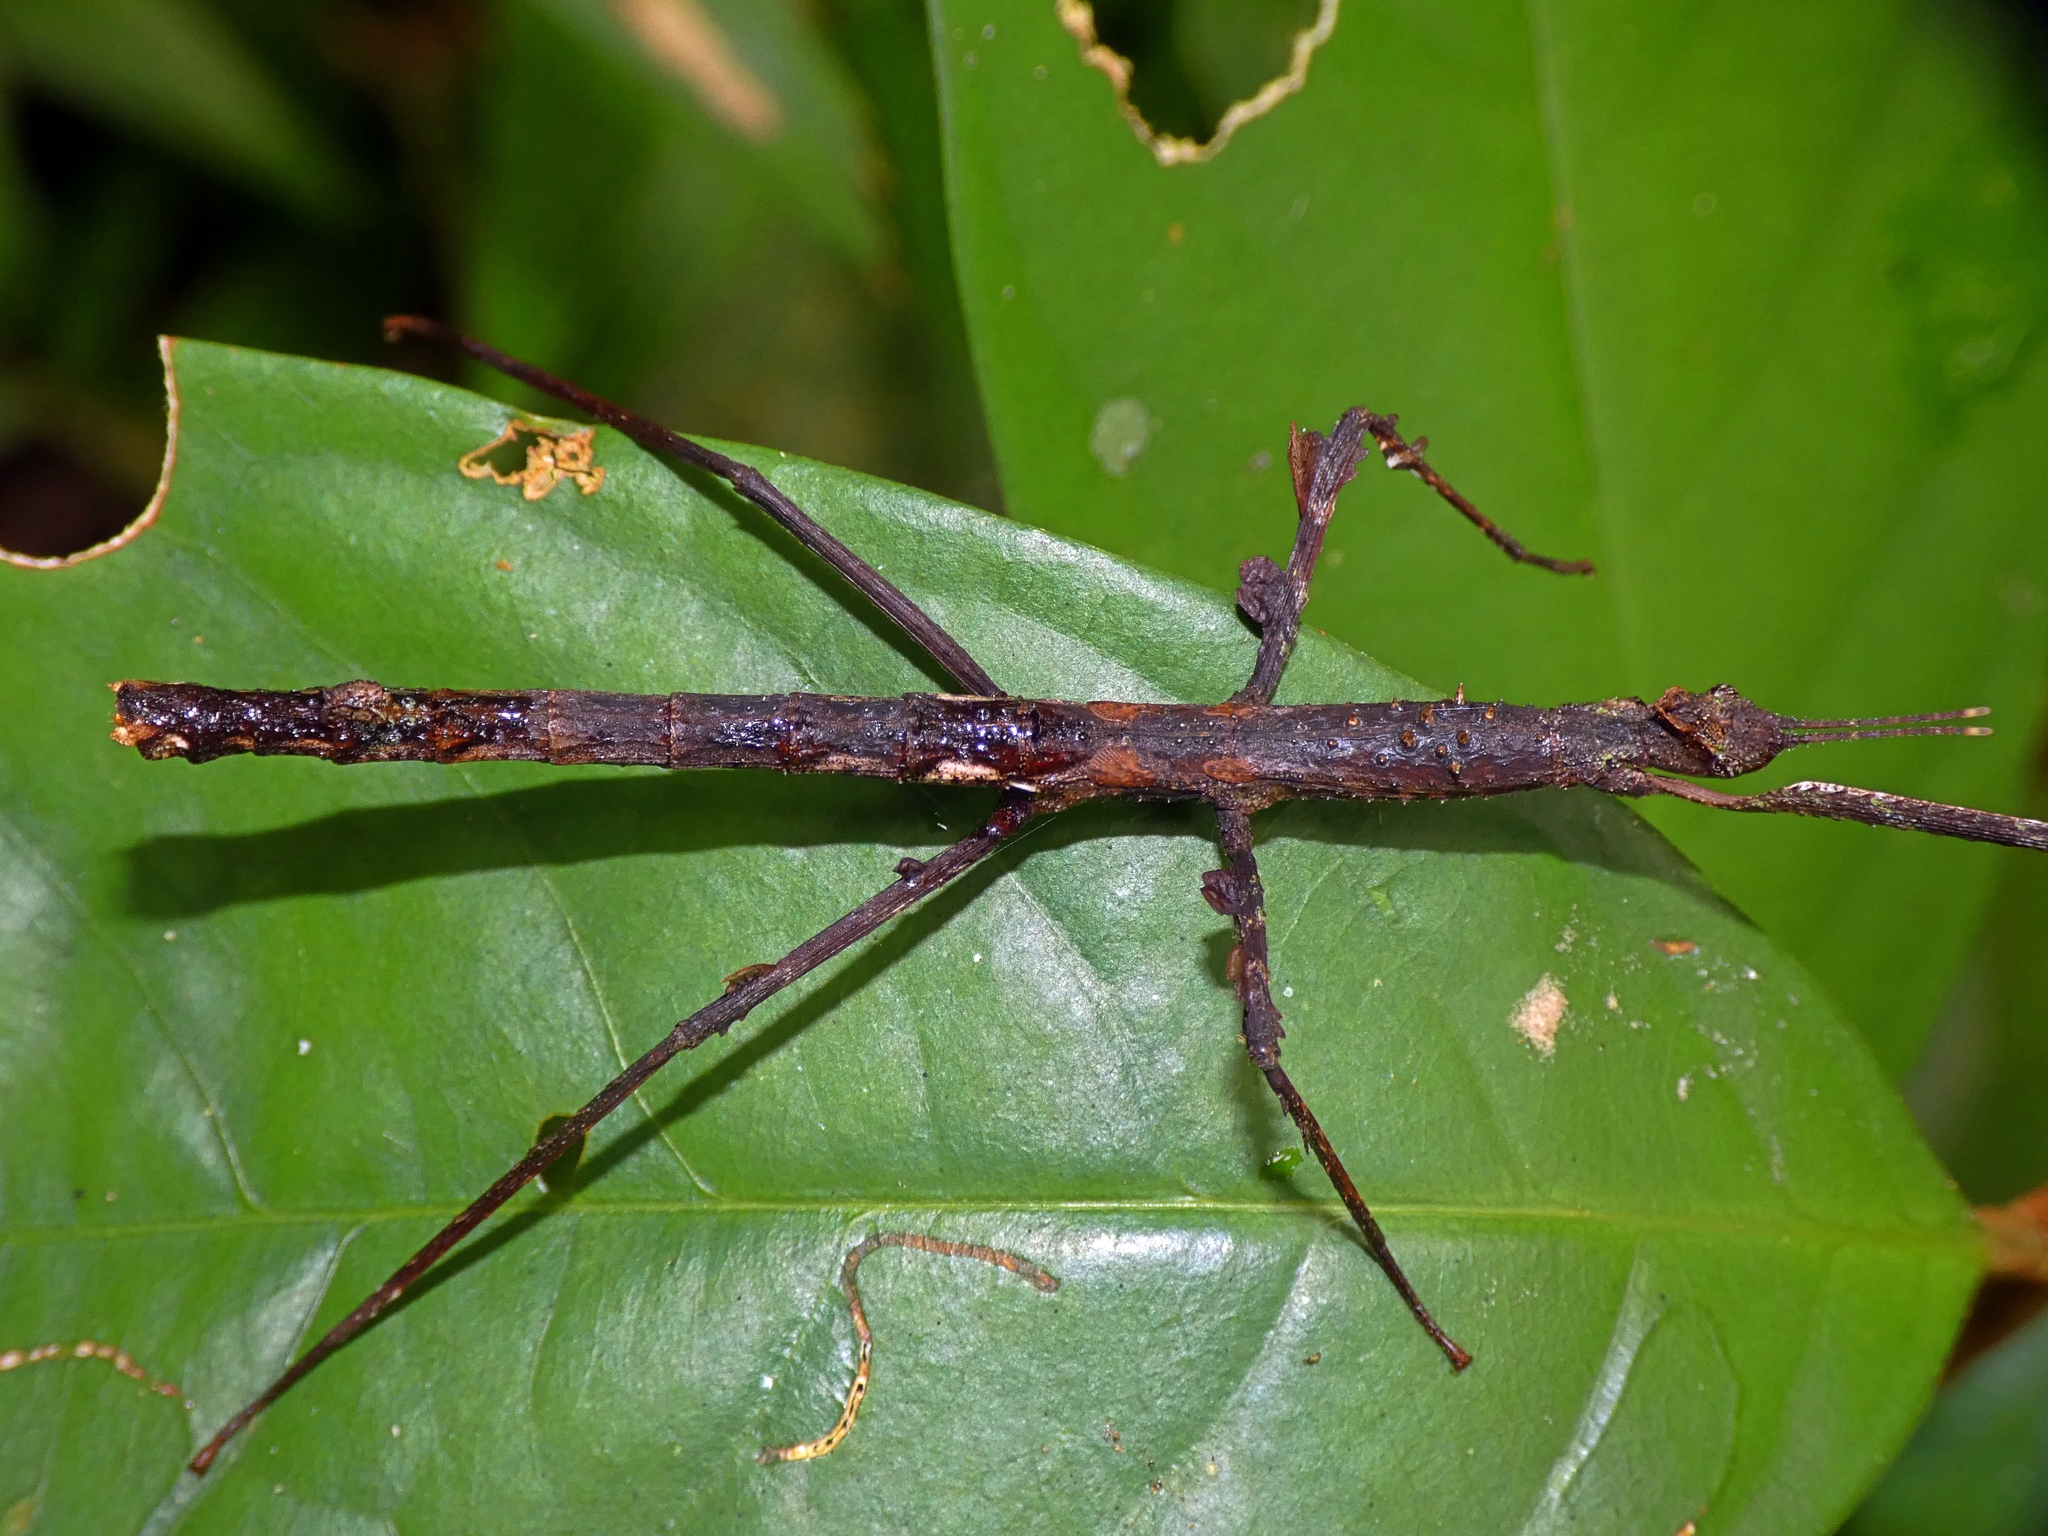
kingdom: Animalia
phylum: Arthropoda
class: Insecta
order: Phasmida
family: Phasmatidae
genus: Onchestus
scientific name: Onchestus rentzi
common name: Rentz's stick-insect
